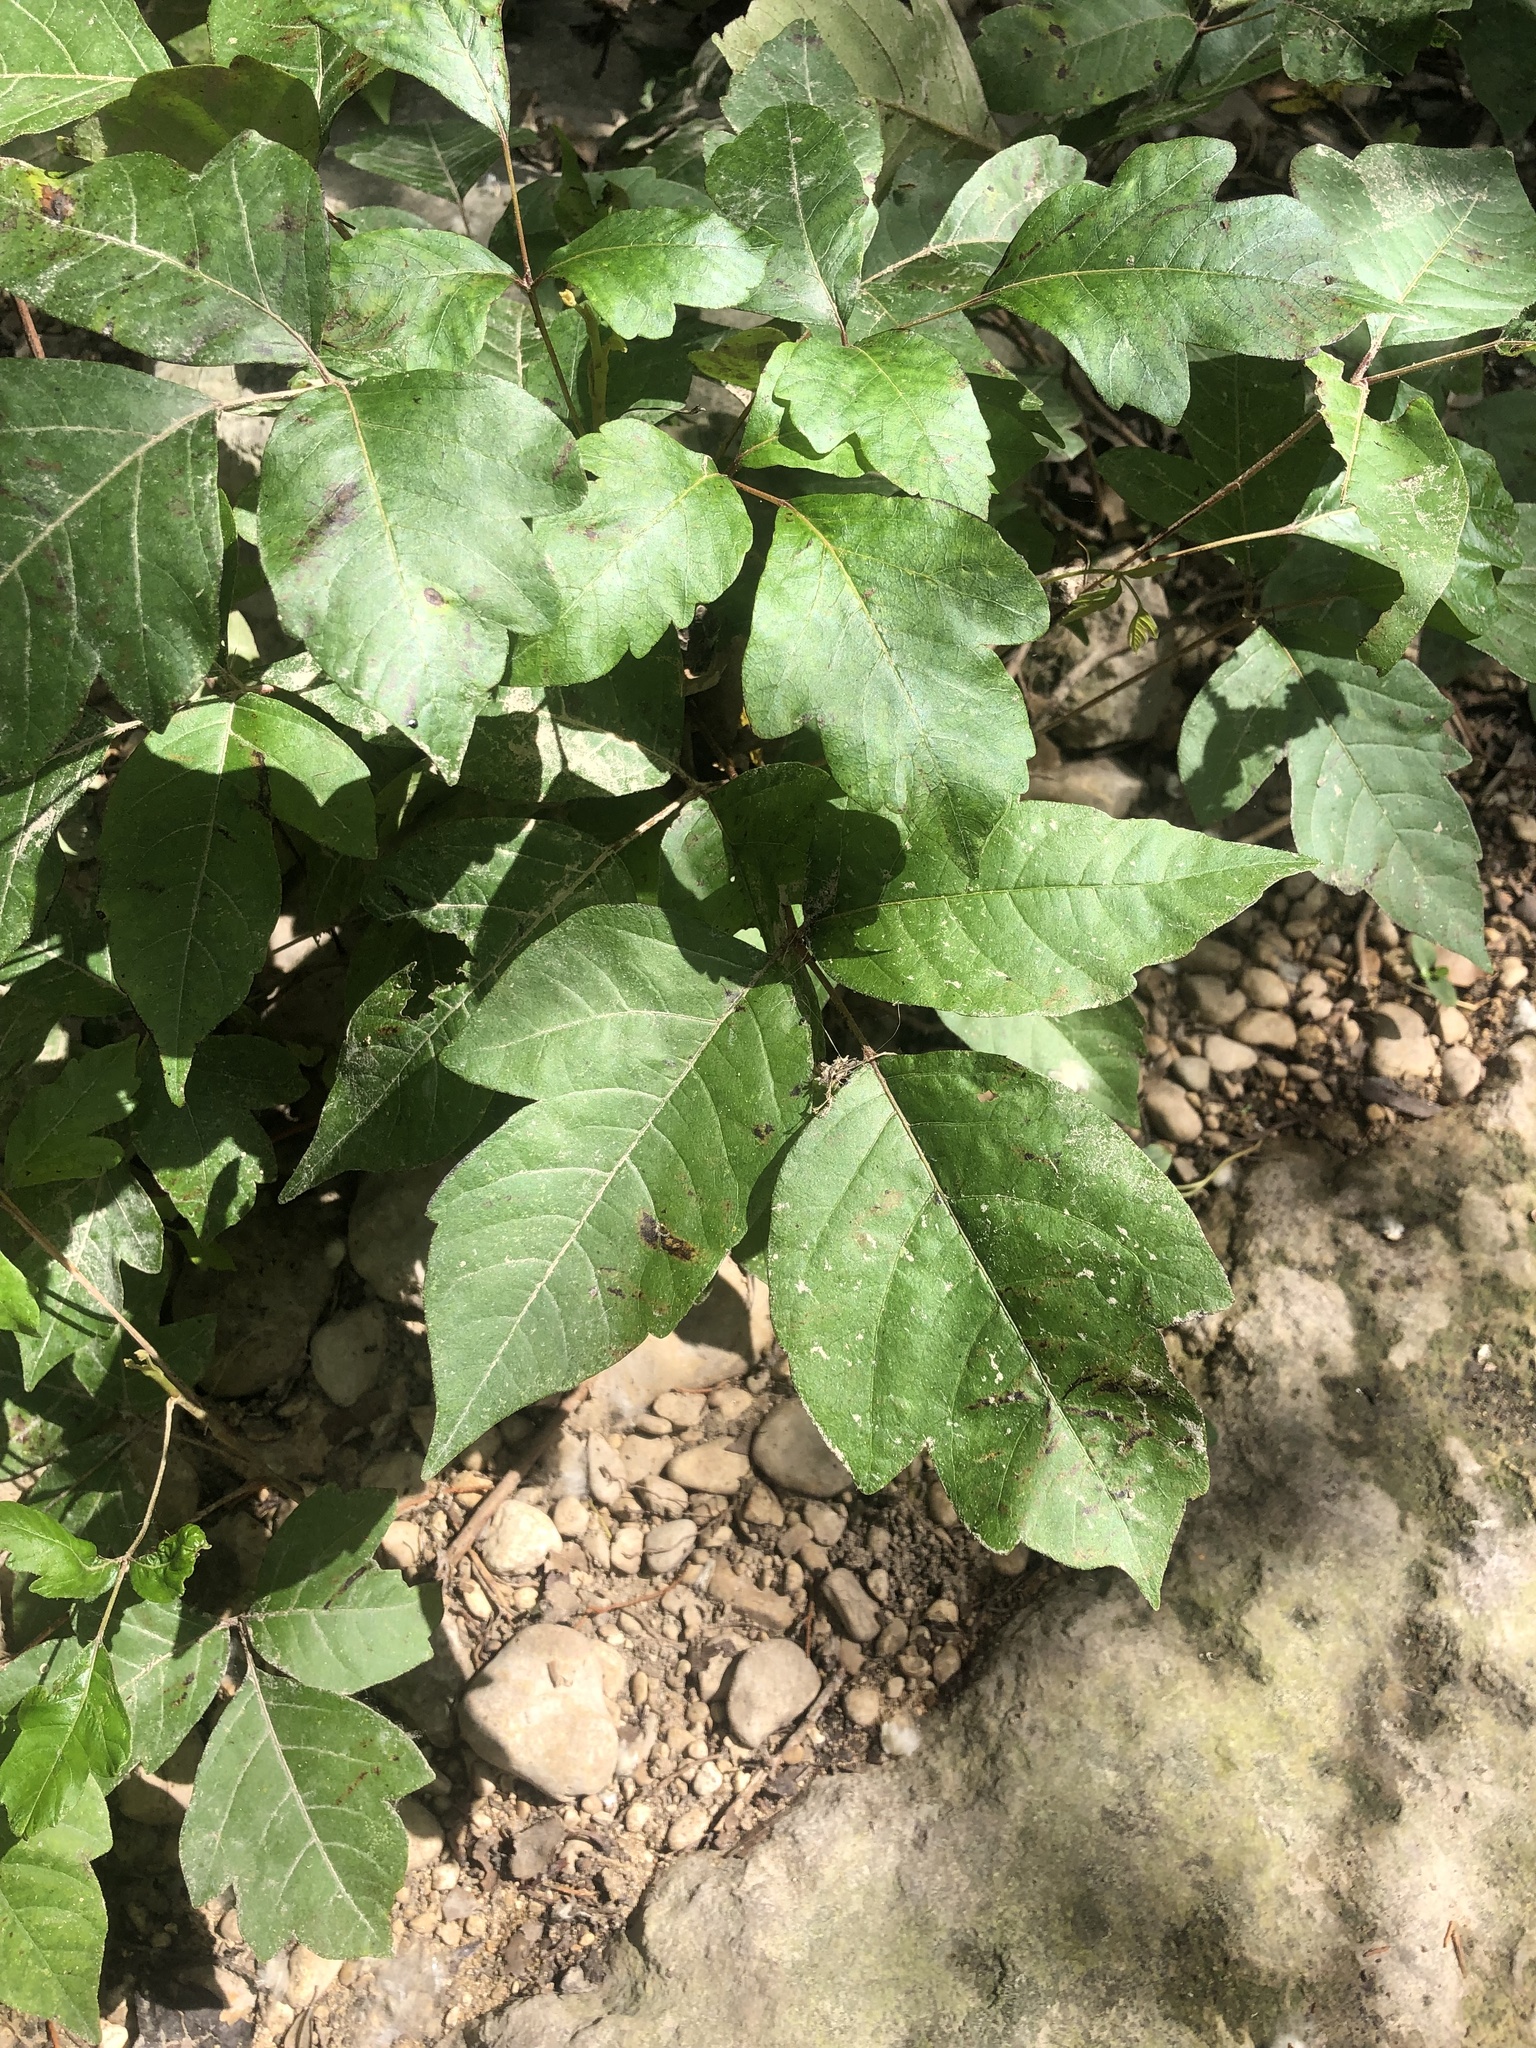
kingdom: Plantae
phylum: Tracheophyta
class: Magnoliopsida
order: Sapindales
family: Anacardiaceae
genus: Toxicodendron
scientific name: Toxicodendron radicans
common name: Poison ivy
